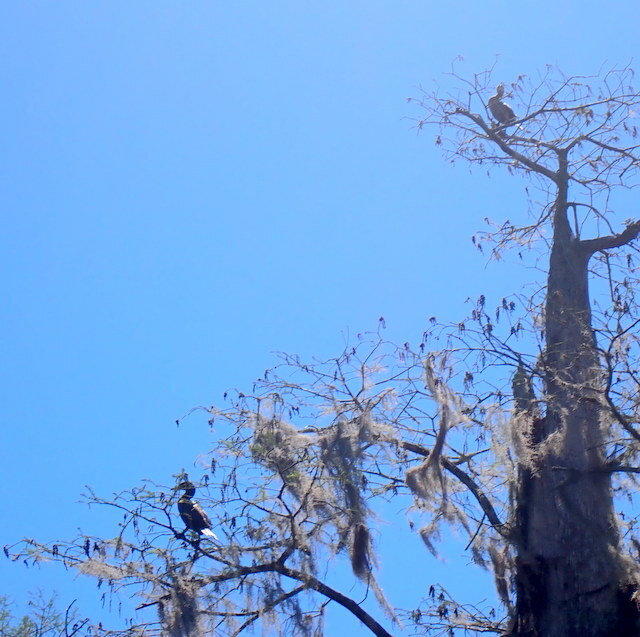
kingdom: Animalia
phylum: Chordata
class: Aves
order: Suliformes
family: Phalacrocoracidae
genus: Phalacrocorax
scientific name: Phalacrocorax auritus
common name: Double-crested cormorant
